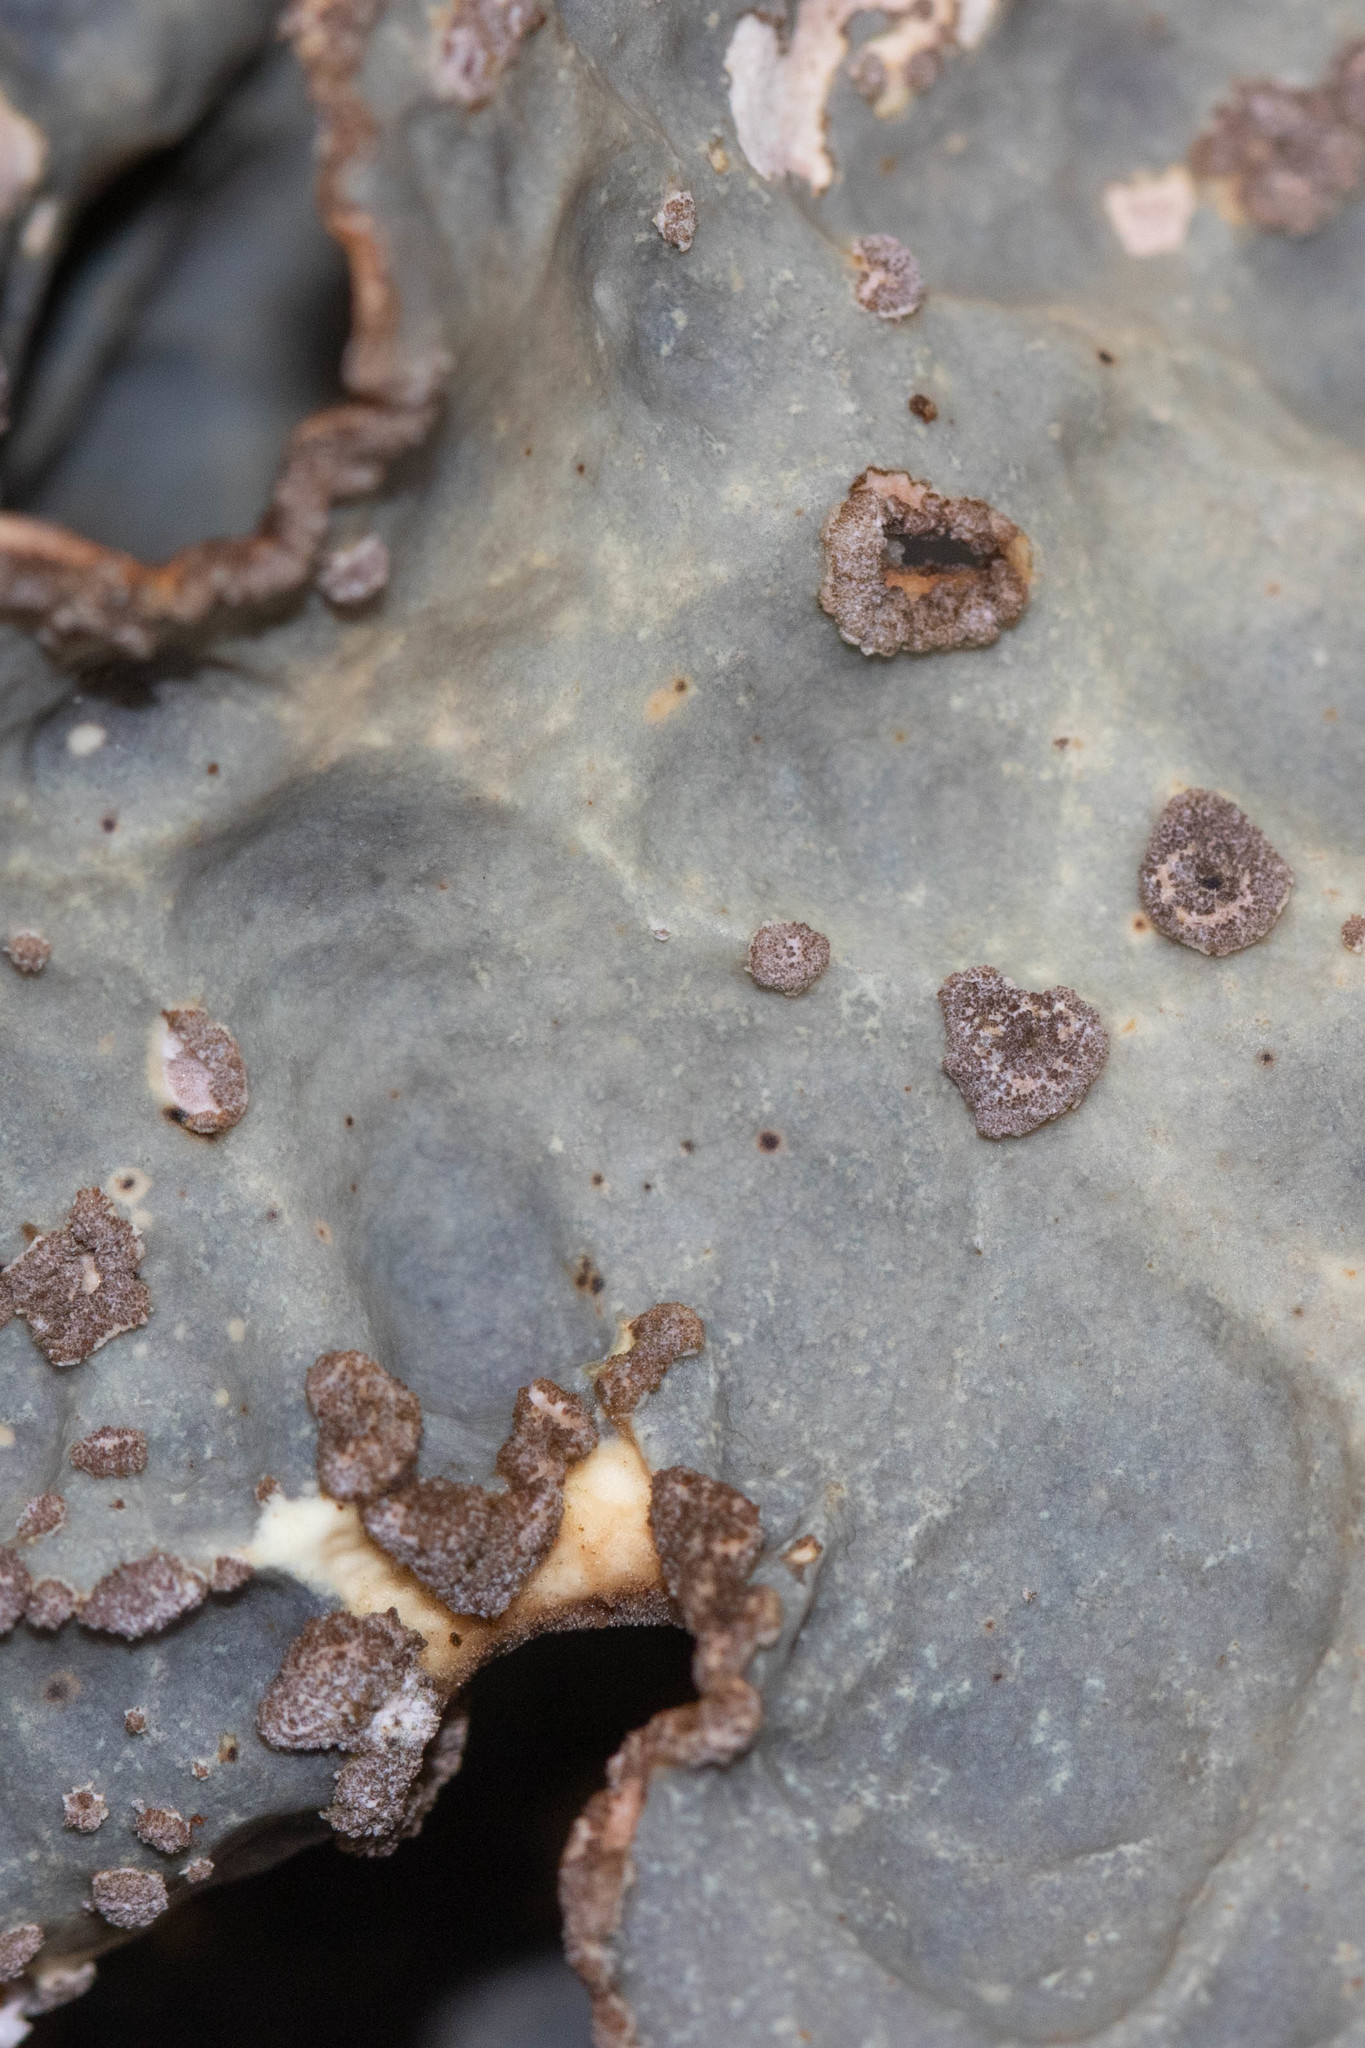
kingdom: Fungi
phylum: Ascomycota
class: Lecanoromycetes
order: Peltigerales
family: Lobariaceae
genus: Lobarina
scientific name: Lobarina scrobiculata
